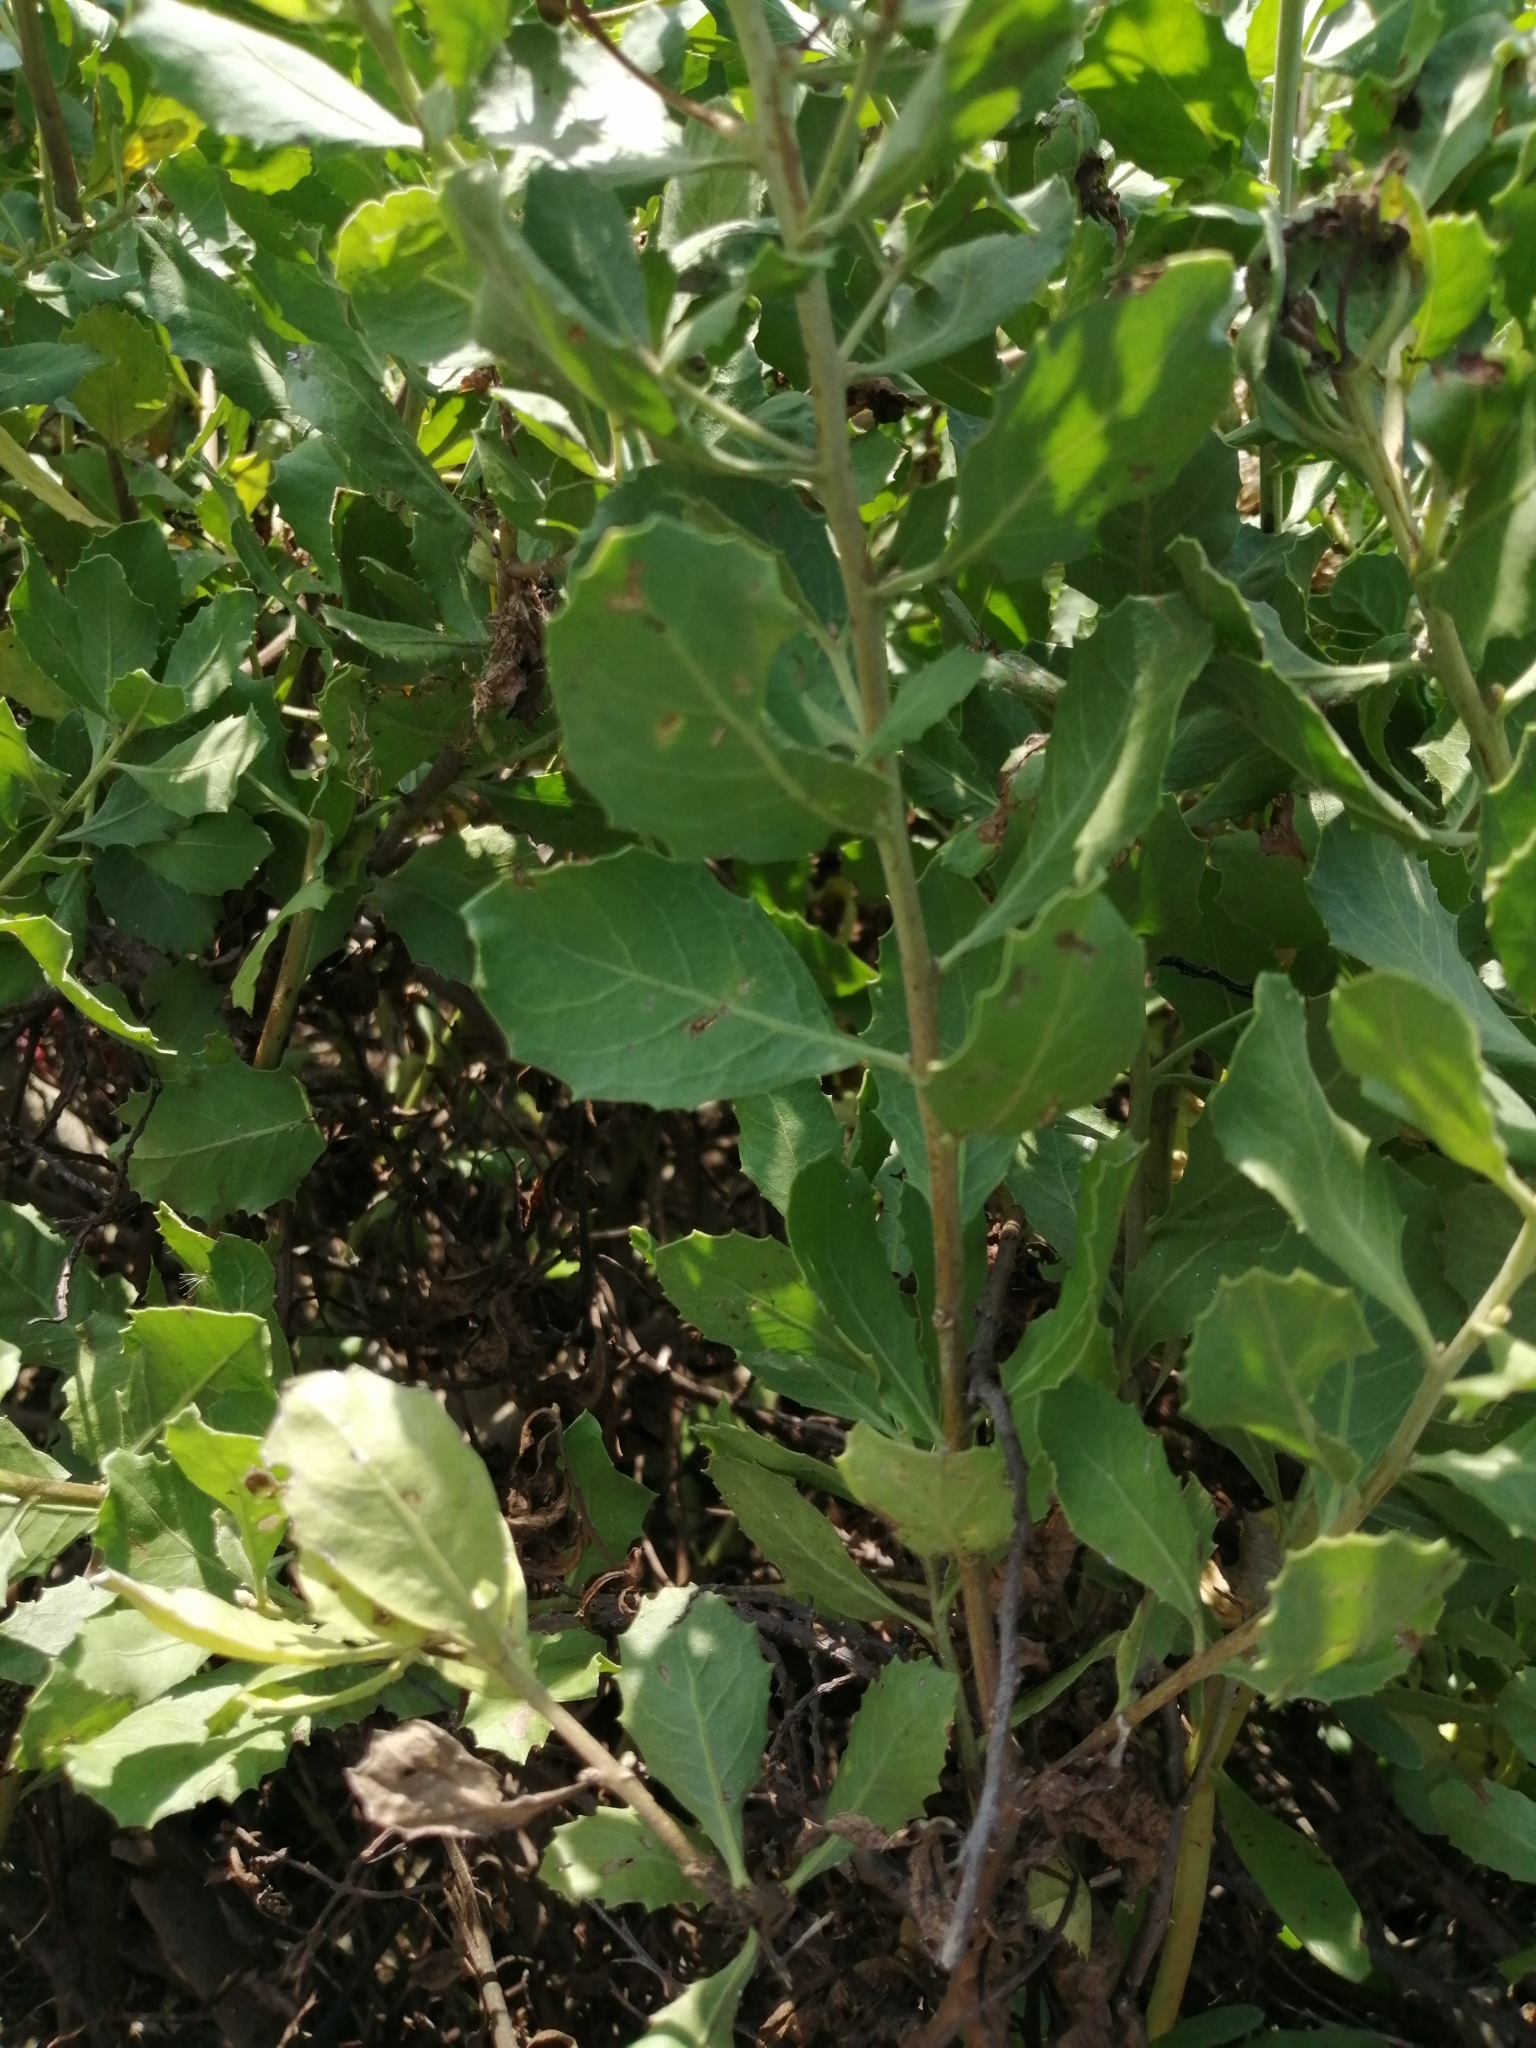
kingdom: Plantae
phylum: Tracheophyta
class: Magnoliopsida
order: Asterales
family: Asteraceae
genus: Pluchea
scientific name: Pluchea indica
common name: Indian fleabane
